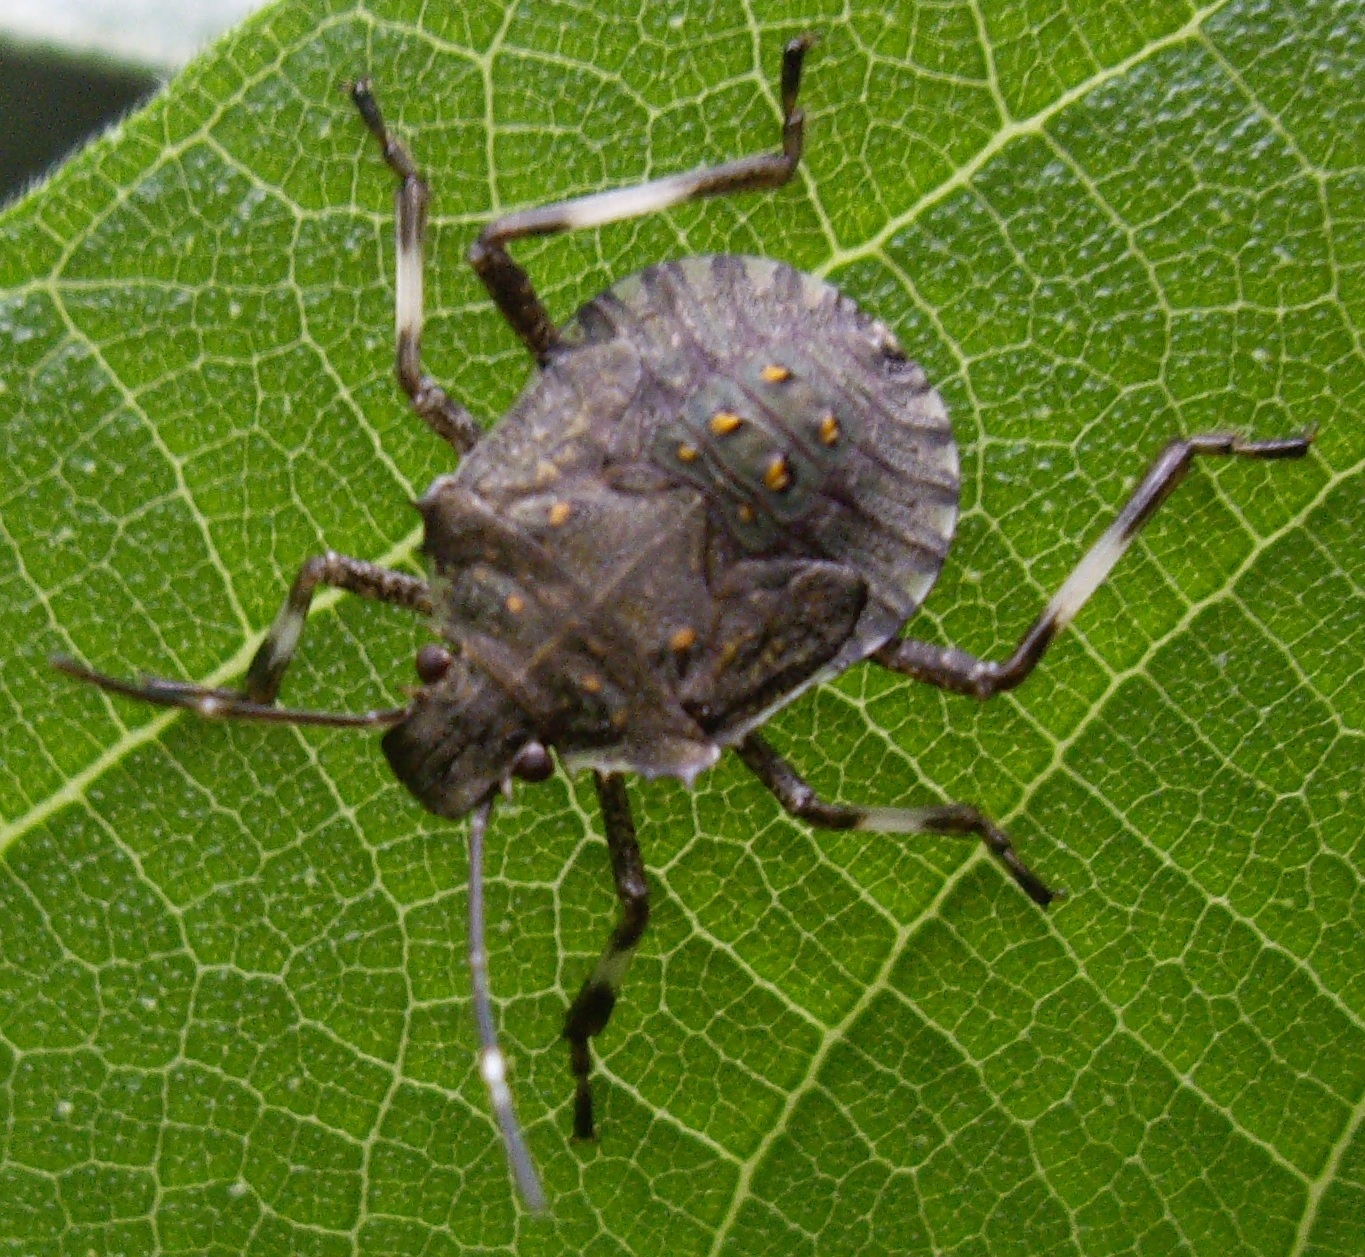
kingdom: Animalia
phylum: Arthropoda
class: Insecta
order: Hemiptera
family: Pentatomidae
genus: Halyomorpha
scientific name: Halyomorpha halys
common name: Brown marmorated stink bug
